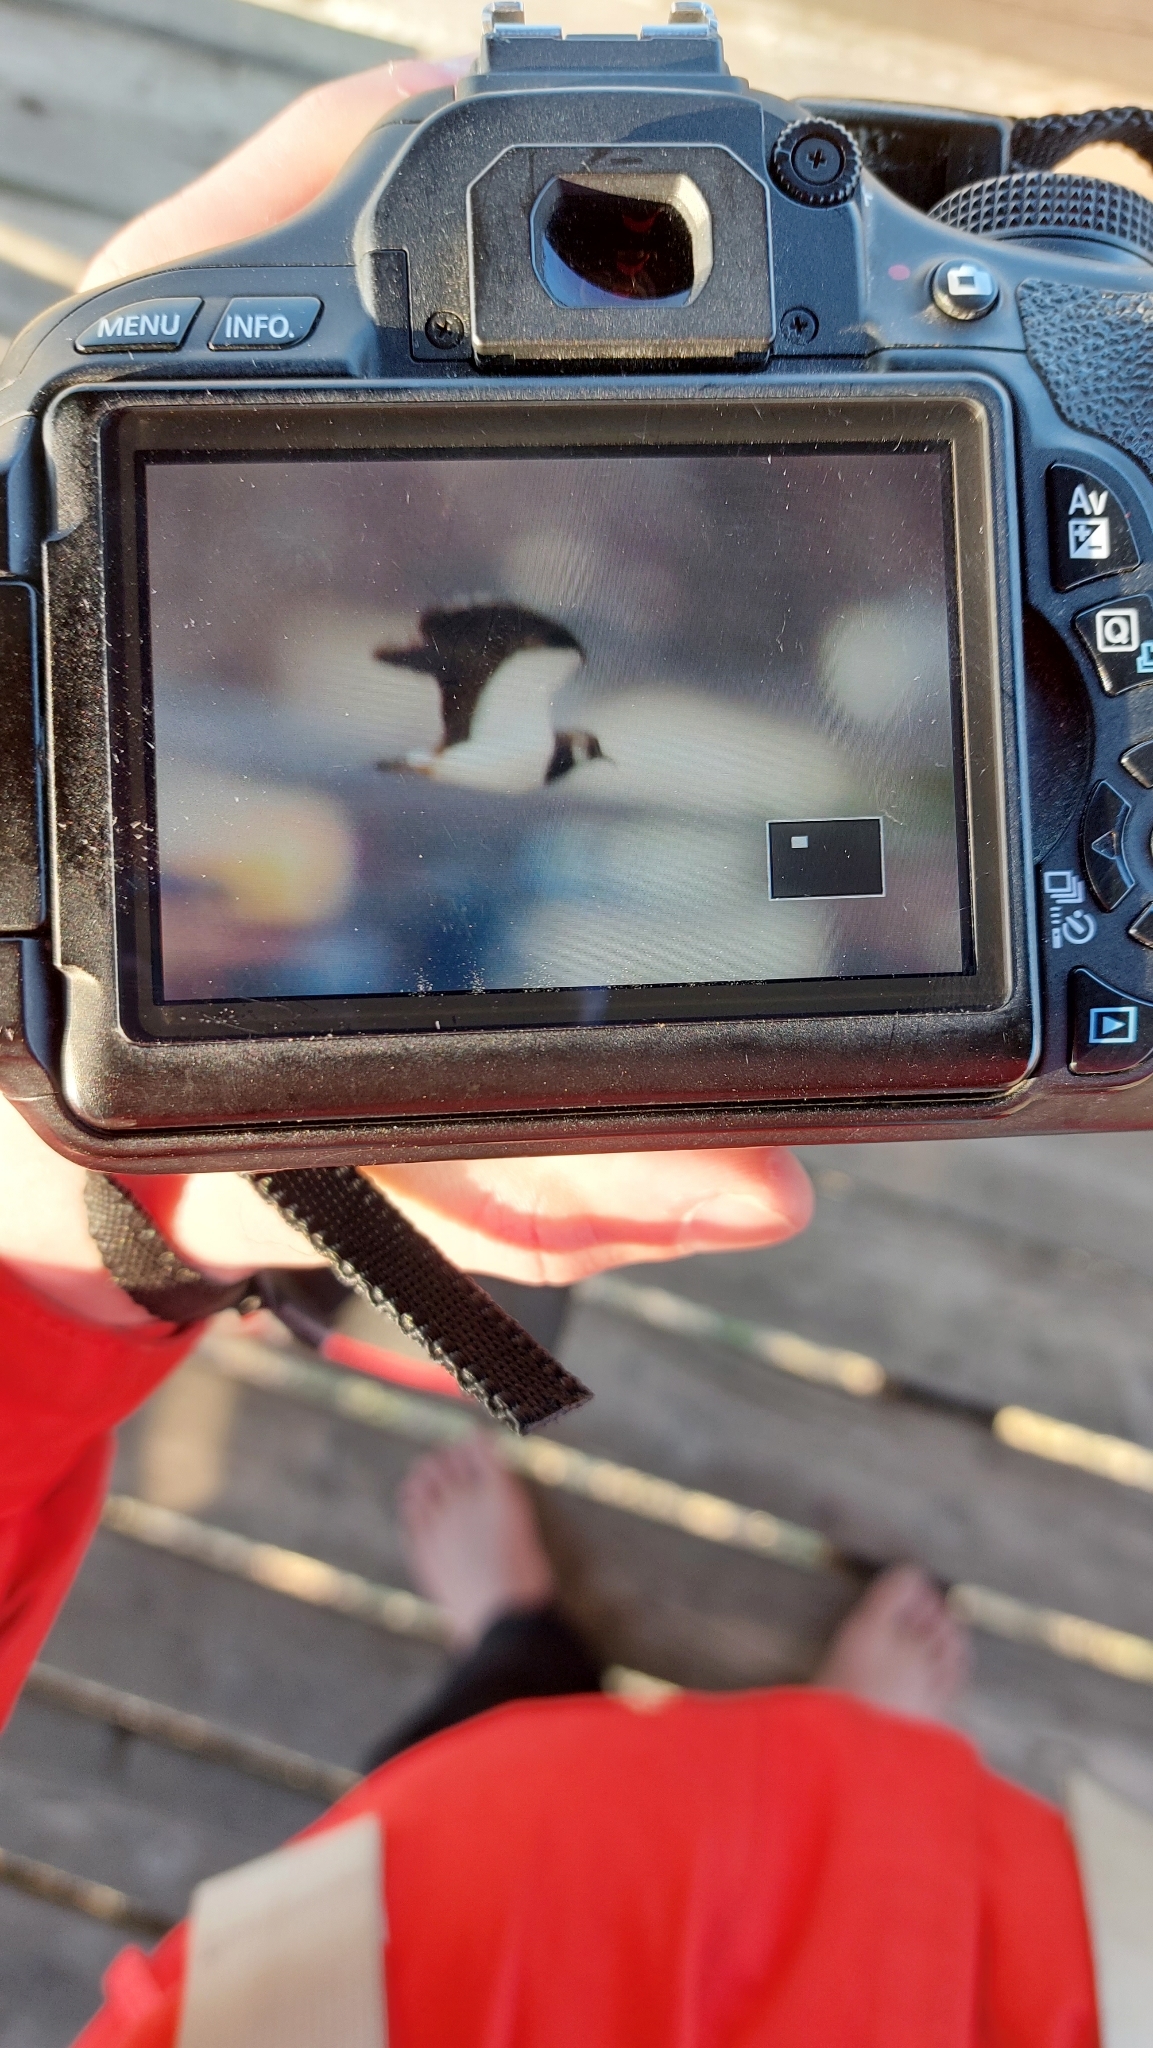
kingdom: Animalia
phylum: Chordata
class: Aves
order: Charadriiformes
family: Charadriidae
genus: Vanellus
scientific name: Vanellus vanellus
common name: Northern lapwing
